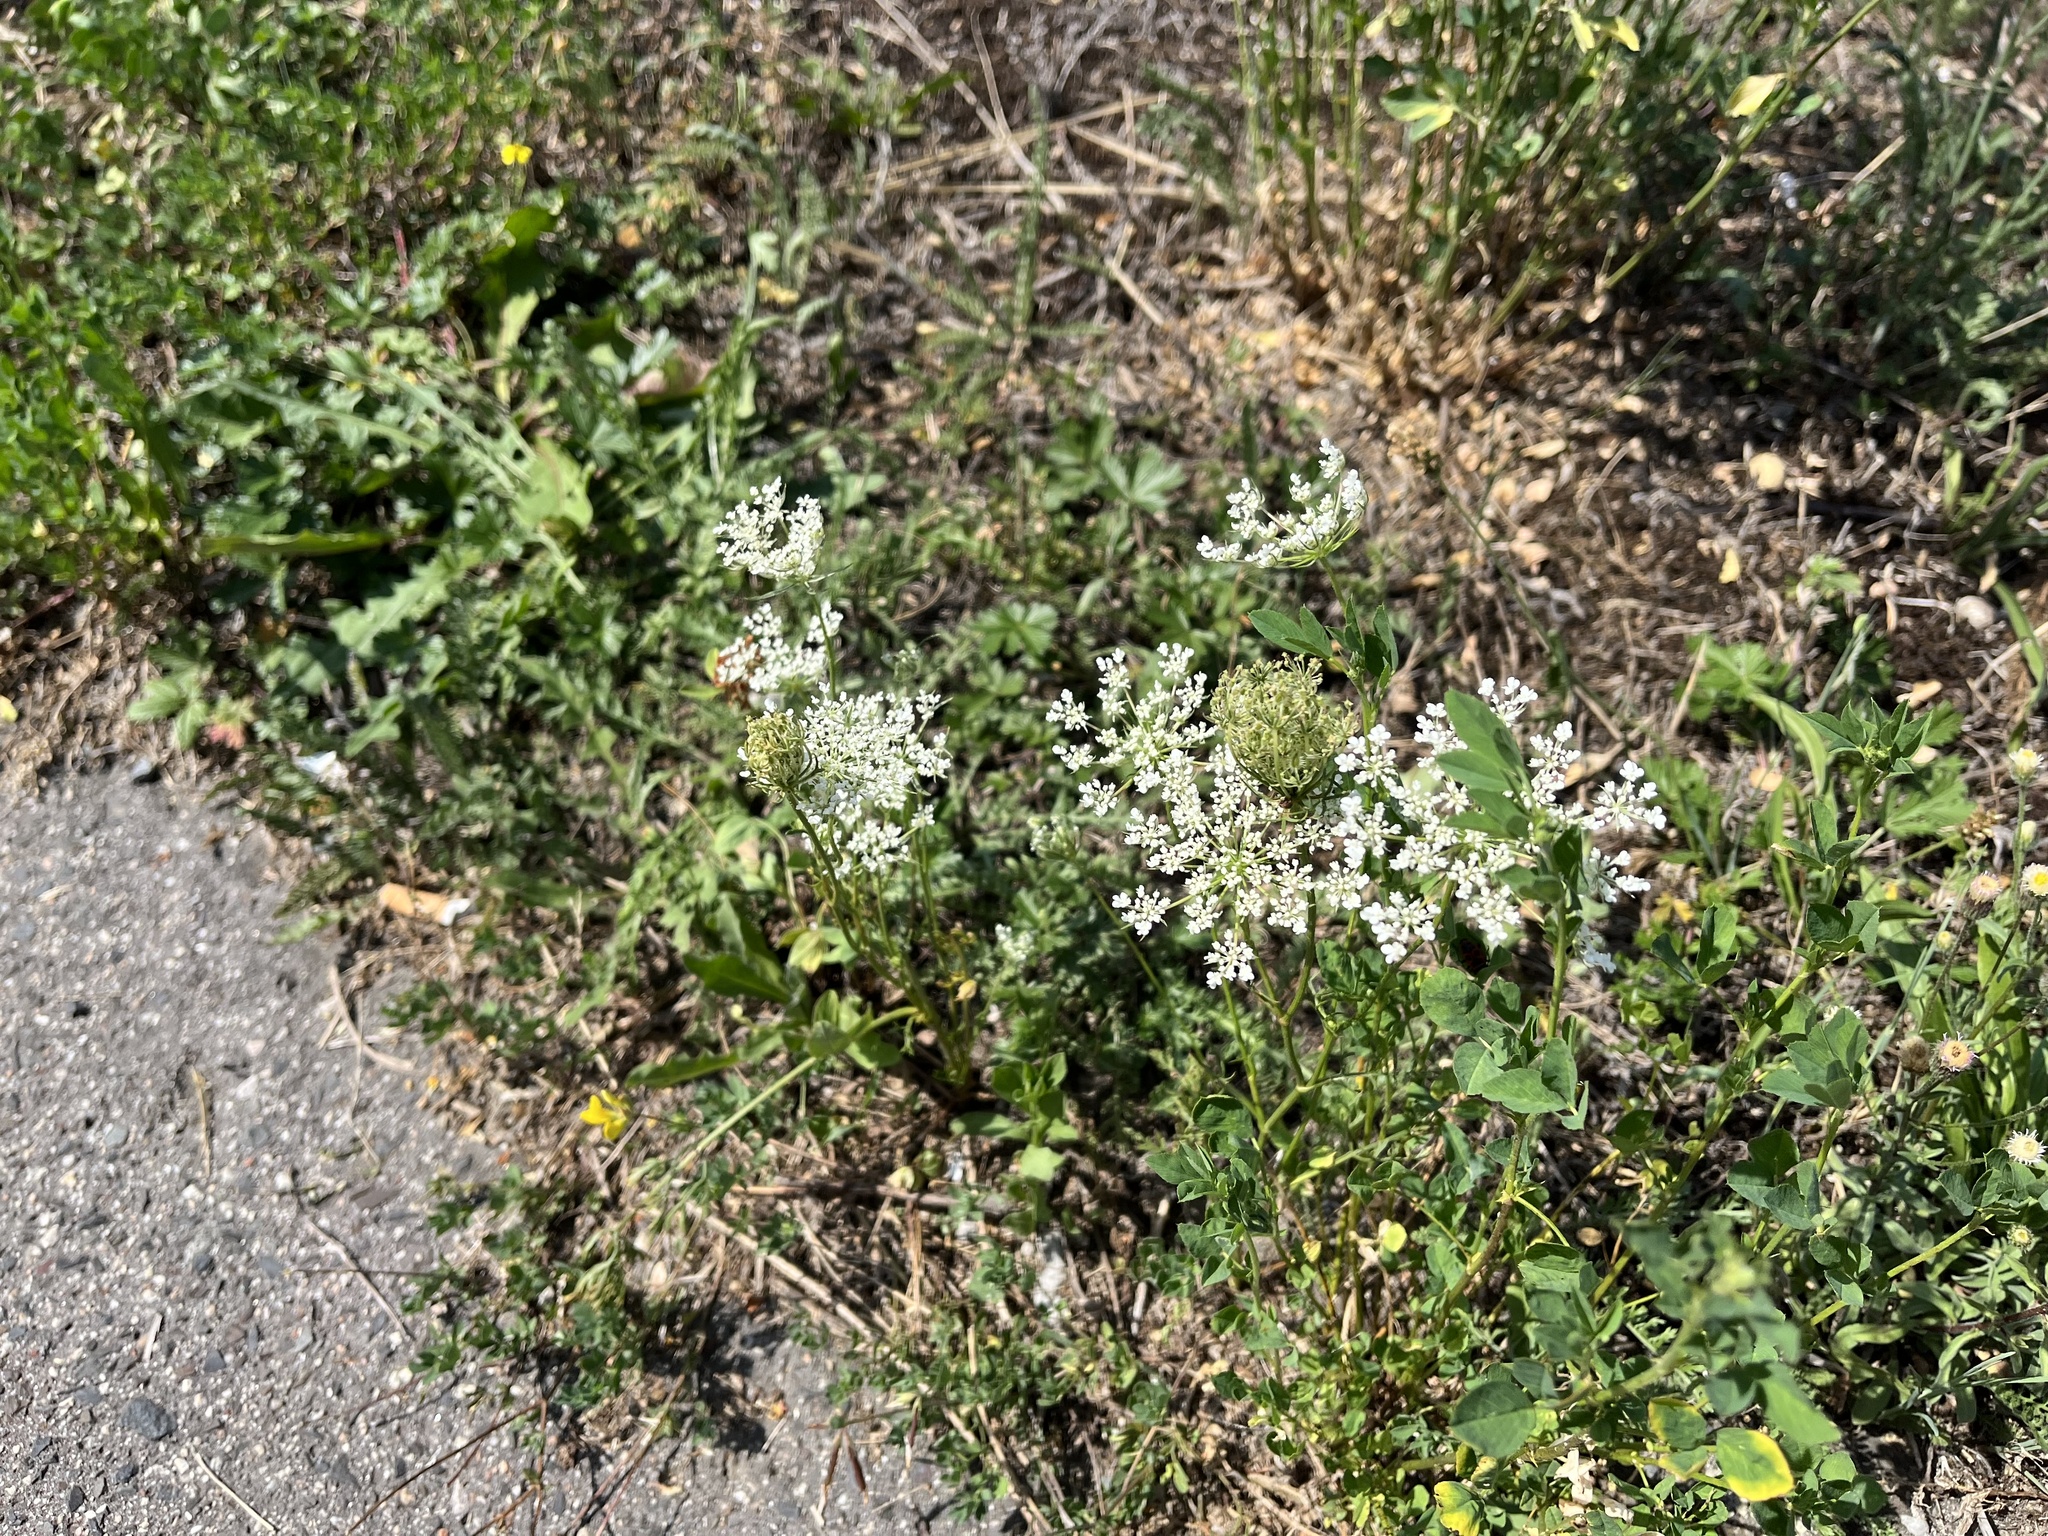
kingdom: Plantae
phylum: Tracheophyta
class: Magnoliopsida
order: Apiales
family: Apiaceae
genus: Daucus
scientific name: Daucus carota
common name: Wild carrot
